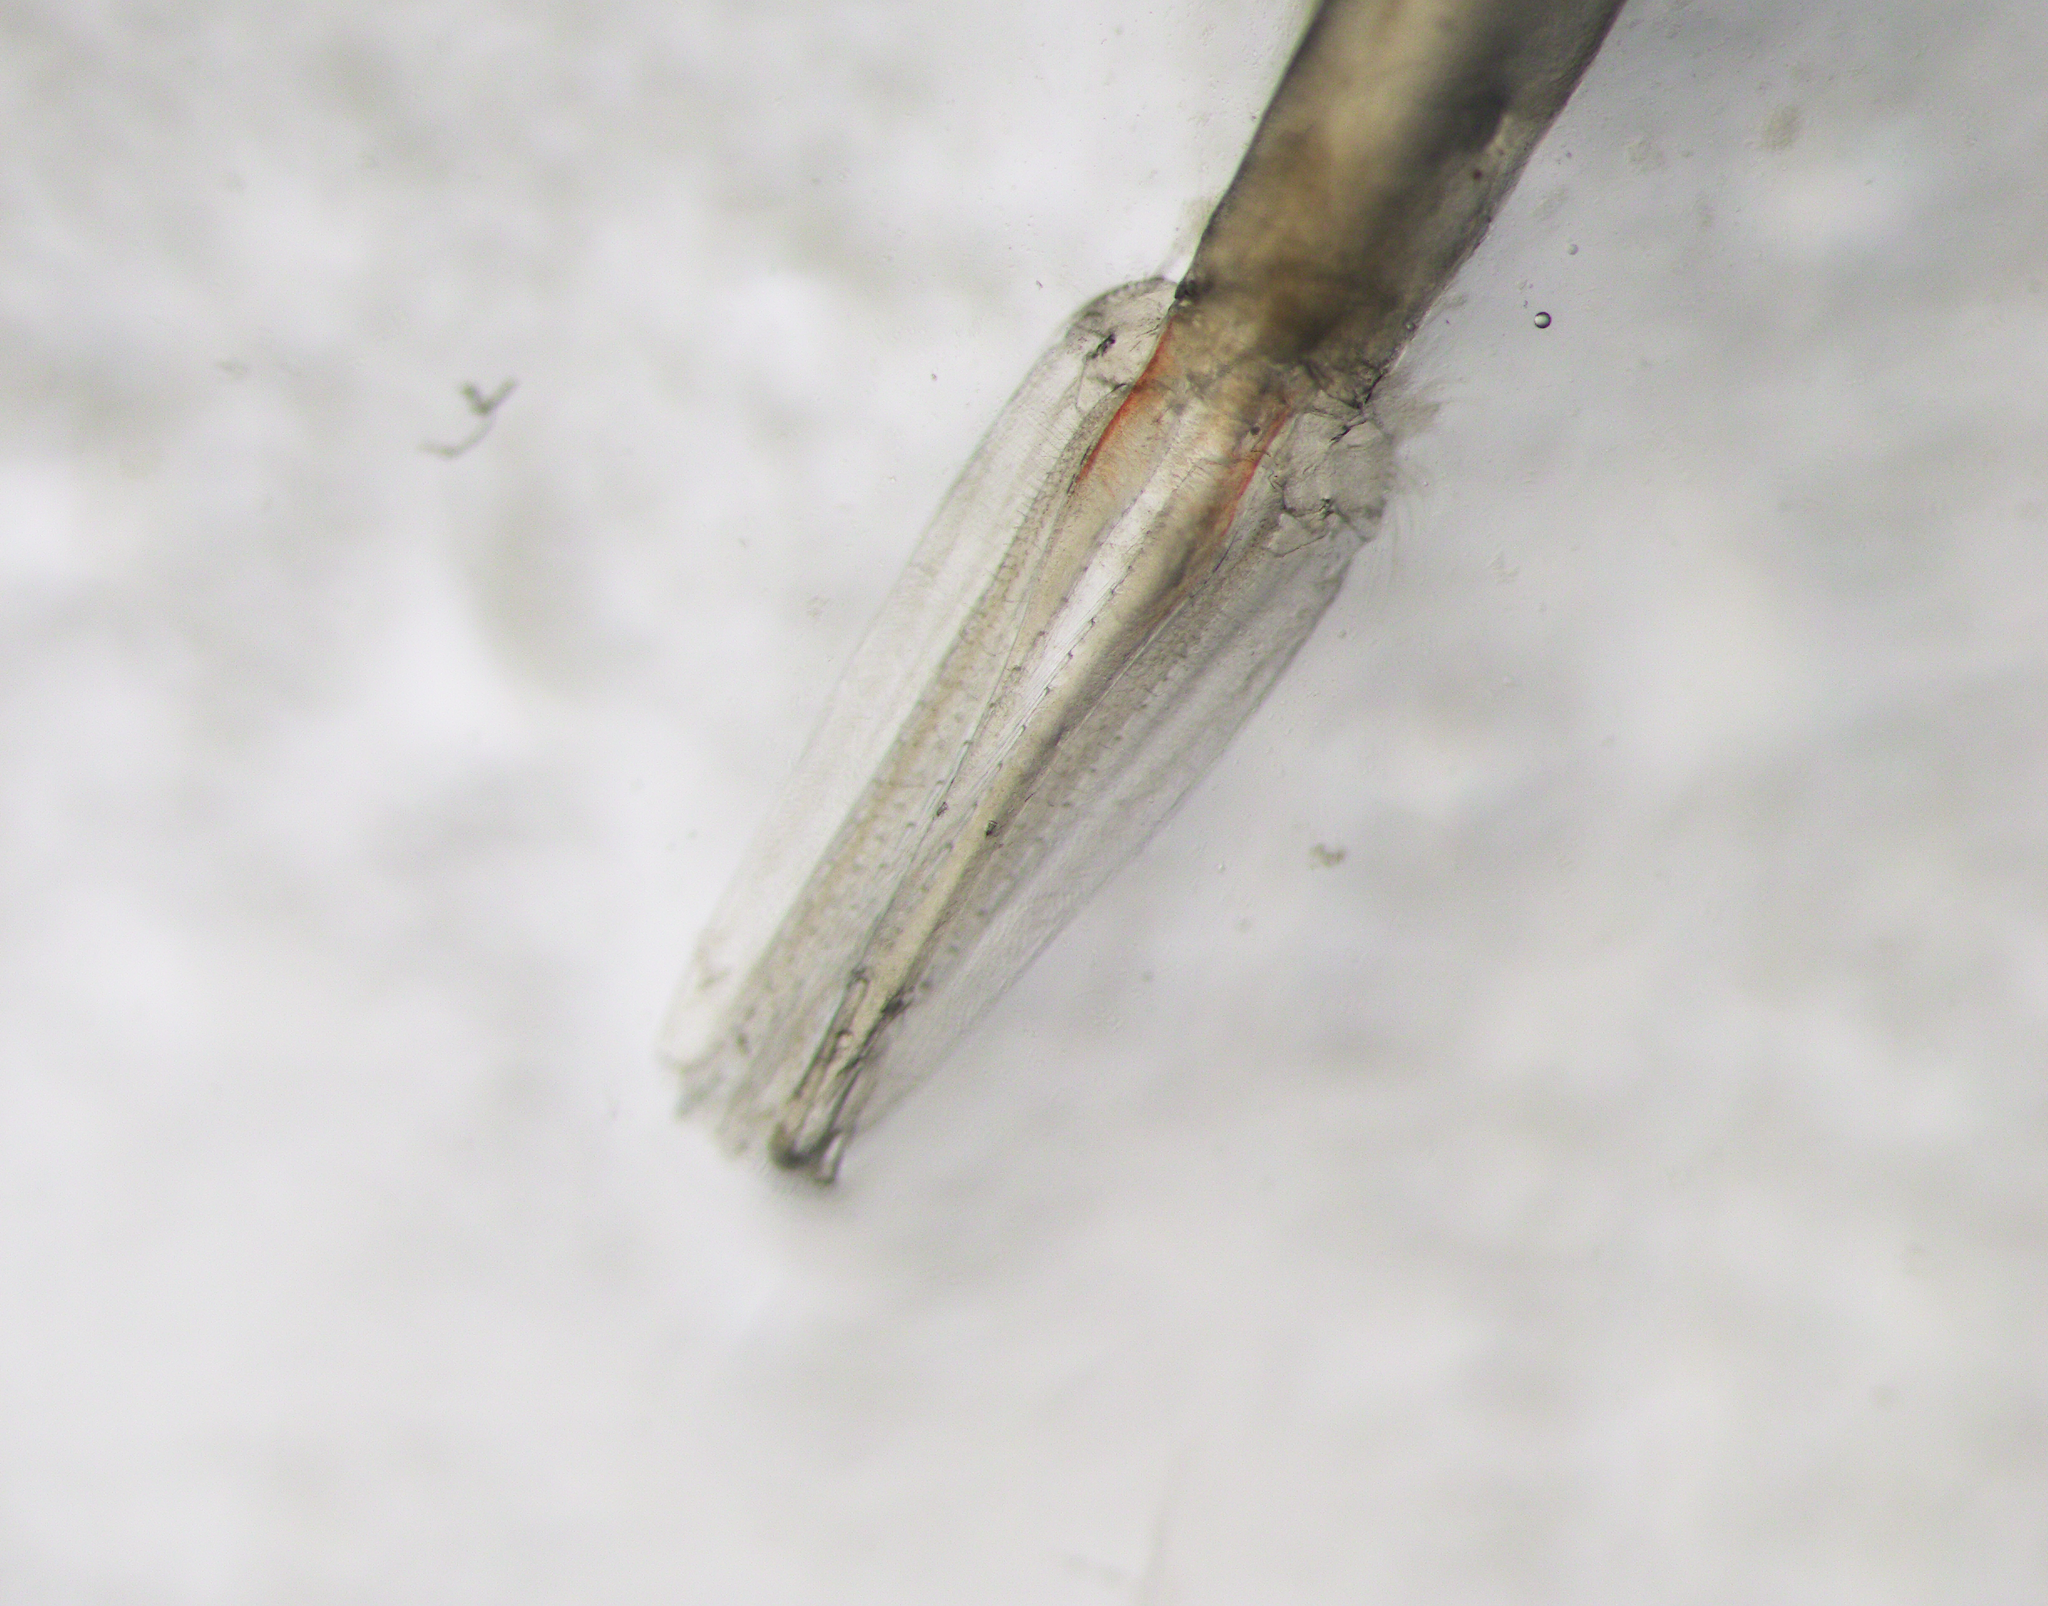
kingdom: Animalia
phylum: Arthropoda
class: Malacostraca
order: Euphausiacea
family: Euphausiidae
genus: Meganyctiphanes
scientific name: Meganyctiphanes norvegica
